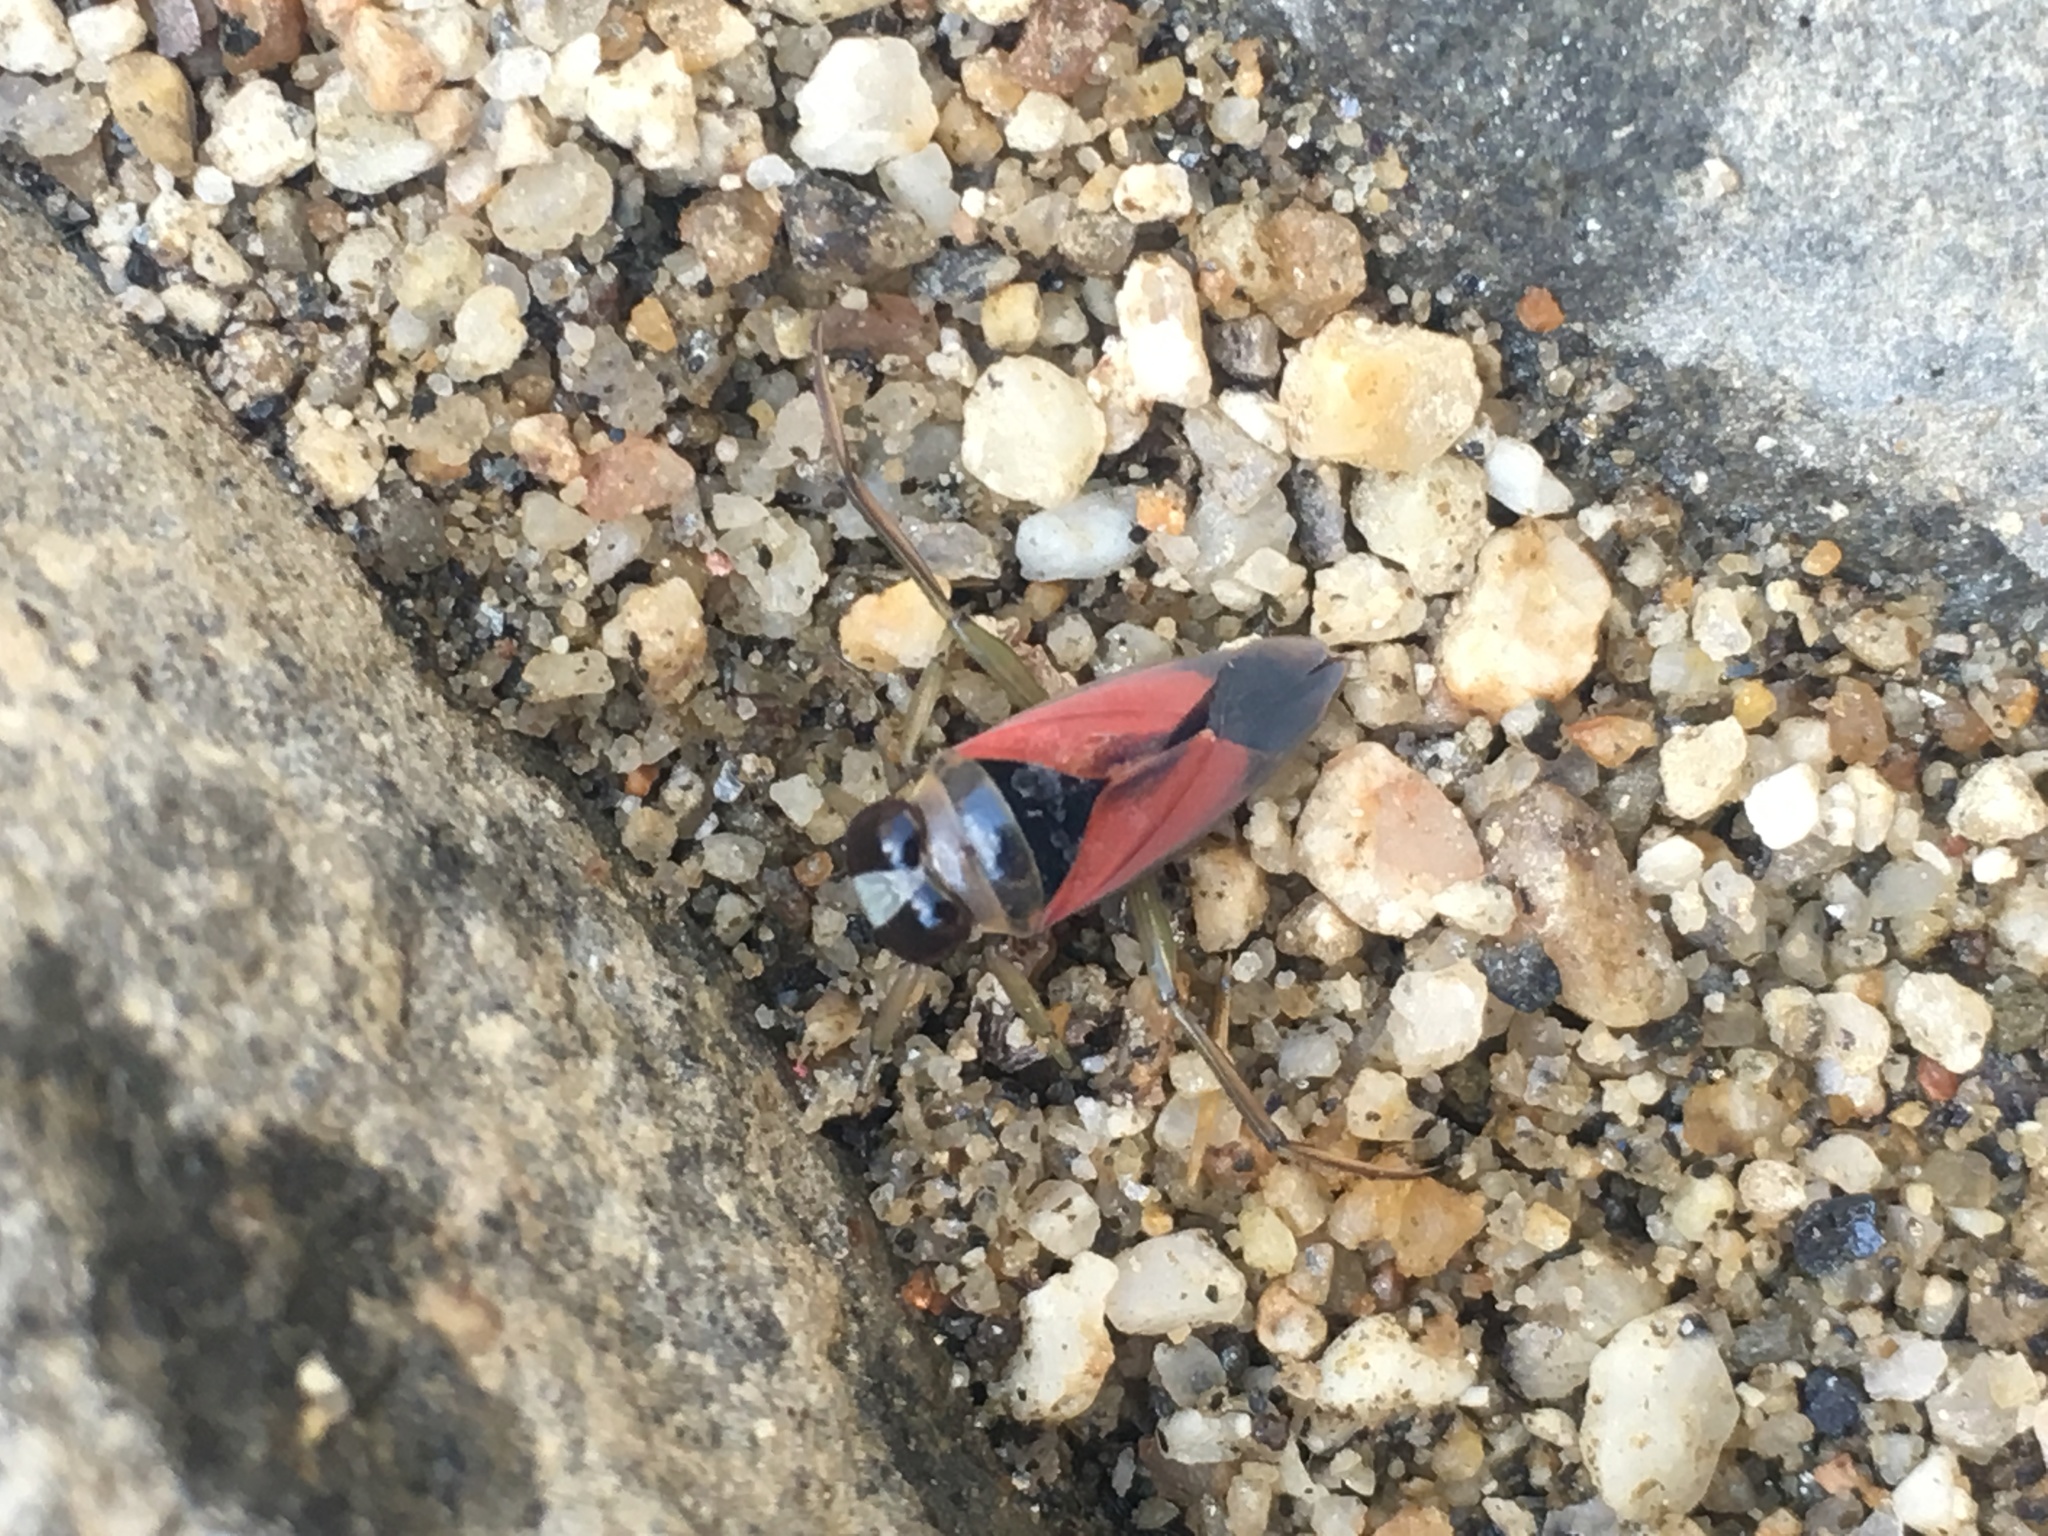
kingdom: Animalia
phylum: Arthropoda
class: Insecta
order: Hemiptera
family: Notonectidae
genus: Notonecta
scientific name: Notonecta lobata
